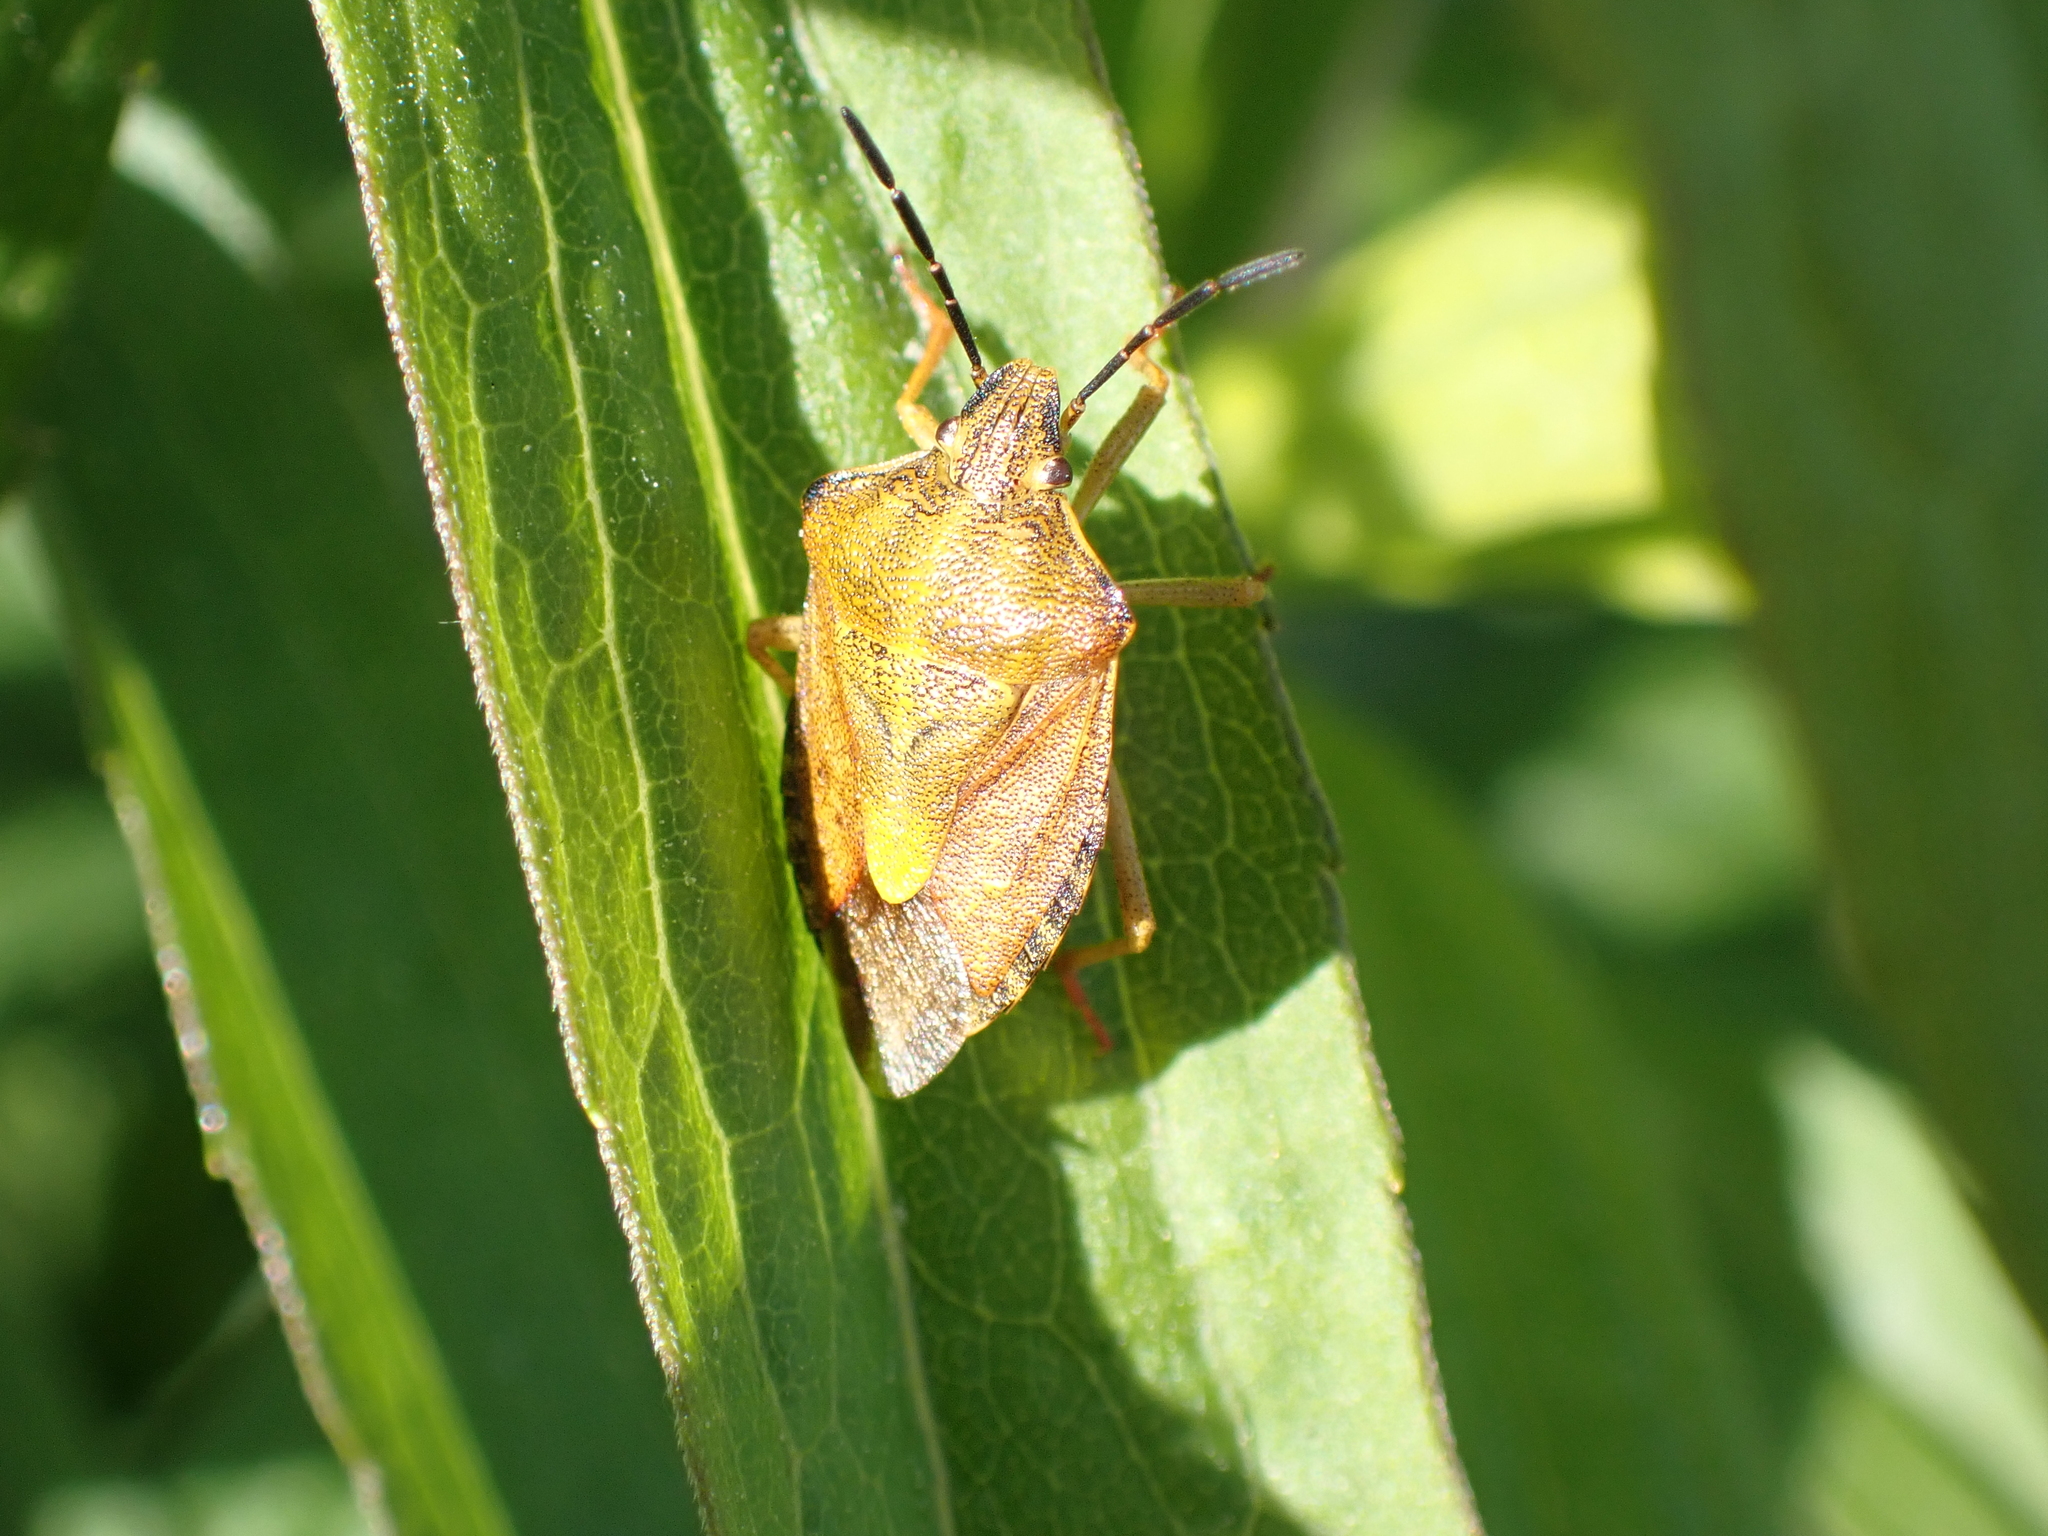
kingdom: Animalia
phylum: Arthropoda
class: Insecta
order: Hemiptera
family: Pentatomidae
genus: Carpocoris
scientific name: Carpocoris purpureipennis
